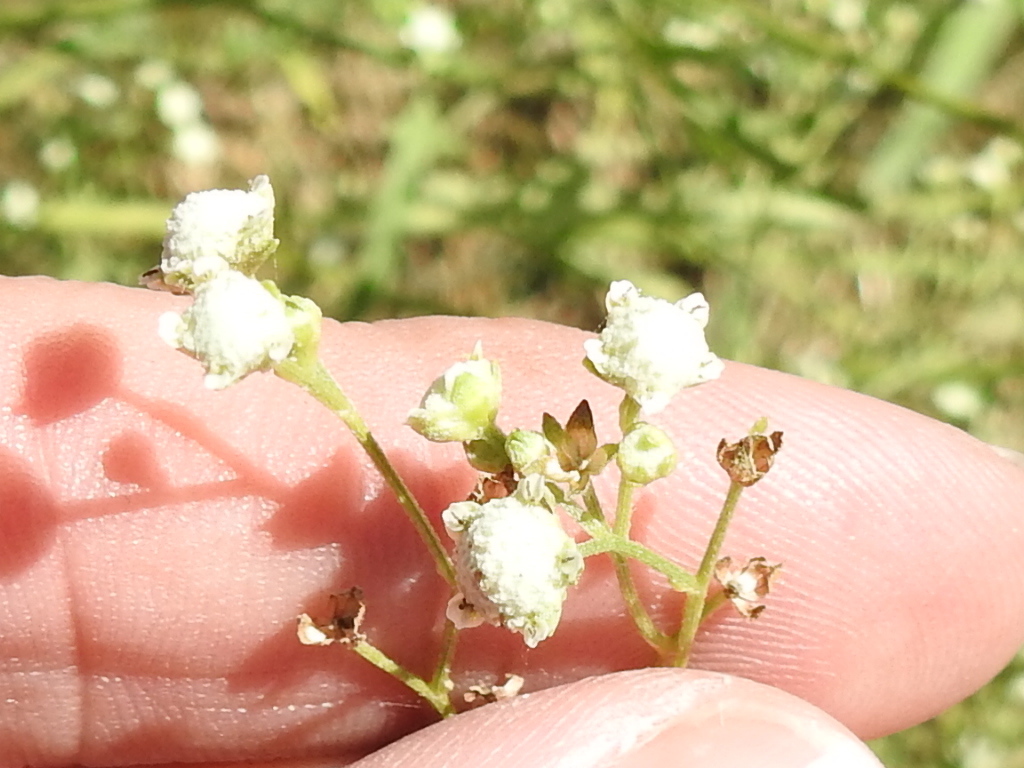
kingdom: Plantae
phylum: Tracheophyta
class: Magnoliopsida
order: Asterales
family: Asteraceae
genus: Parthenium
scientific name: Parthenium hysterophorus
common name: Santa maria feverfew
